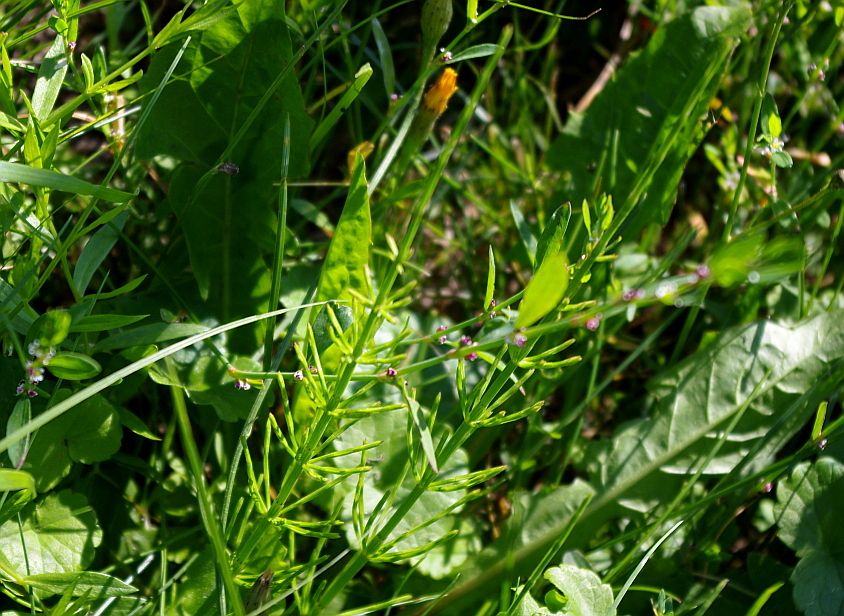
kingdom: Plantae
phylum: Tracheophyta
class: Polypodiopsida
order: Equisetales
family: Equisetaceae
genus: Equisetum
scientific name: Equisetum arvense
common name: Field horsetail
